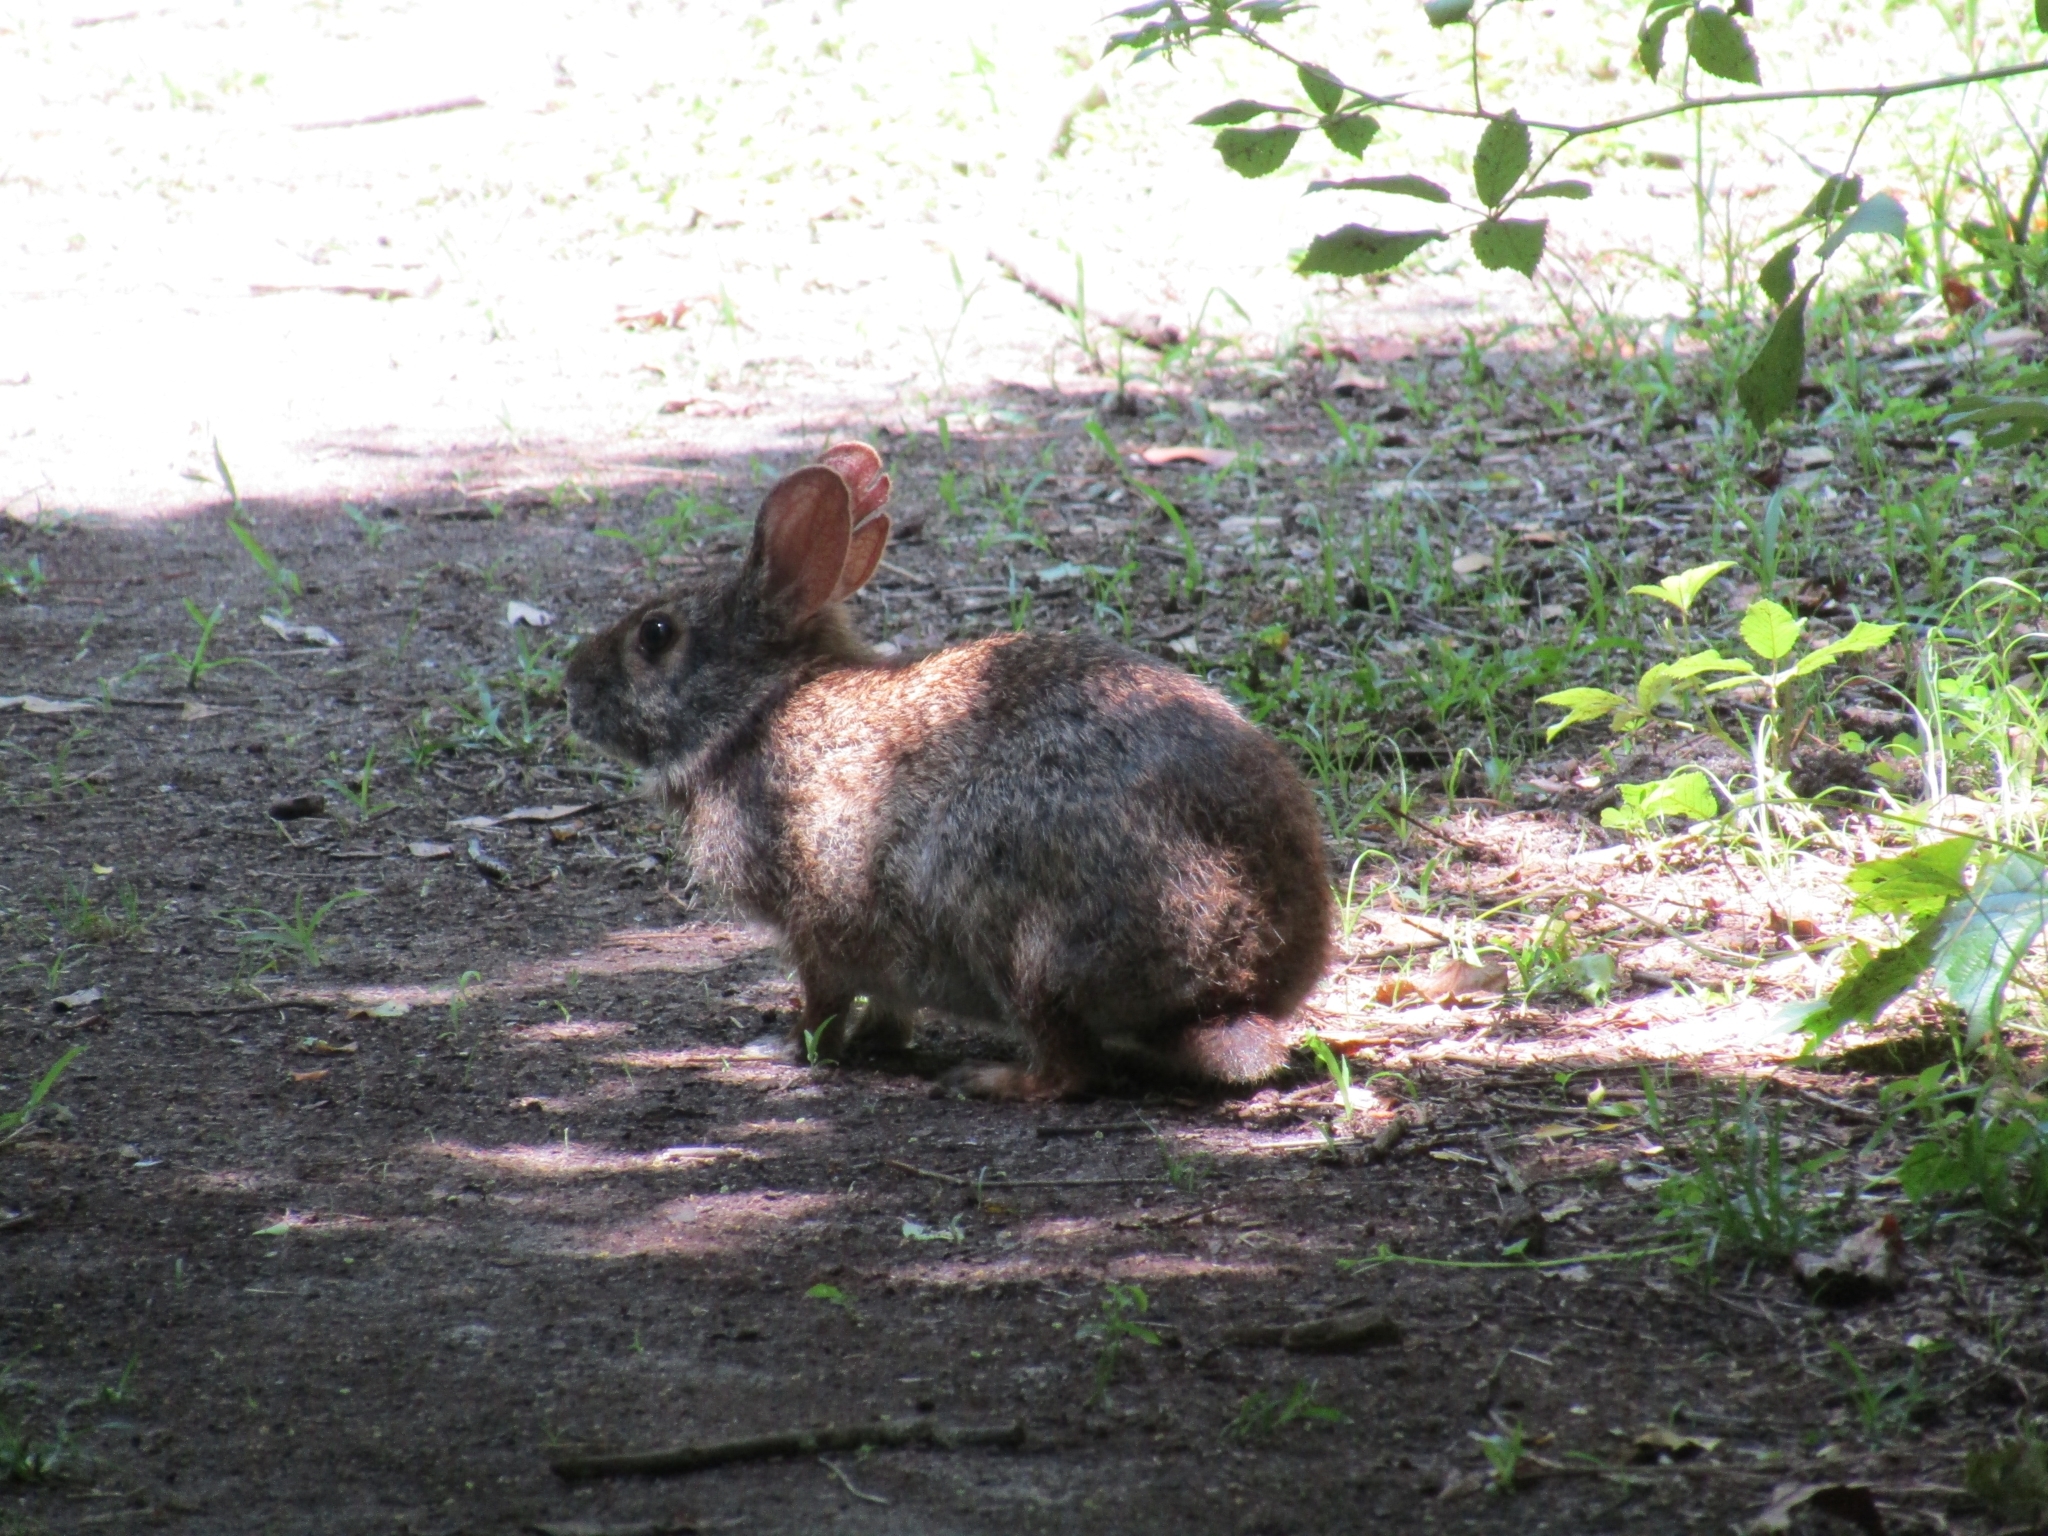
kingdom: Animalia
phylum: Chordata
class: Mammalia
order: Lagomorpha
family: Leporidae
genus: Sylvilagus
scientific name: Sylvilagus palustris
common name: Marsh rabbit
